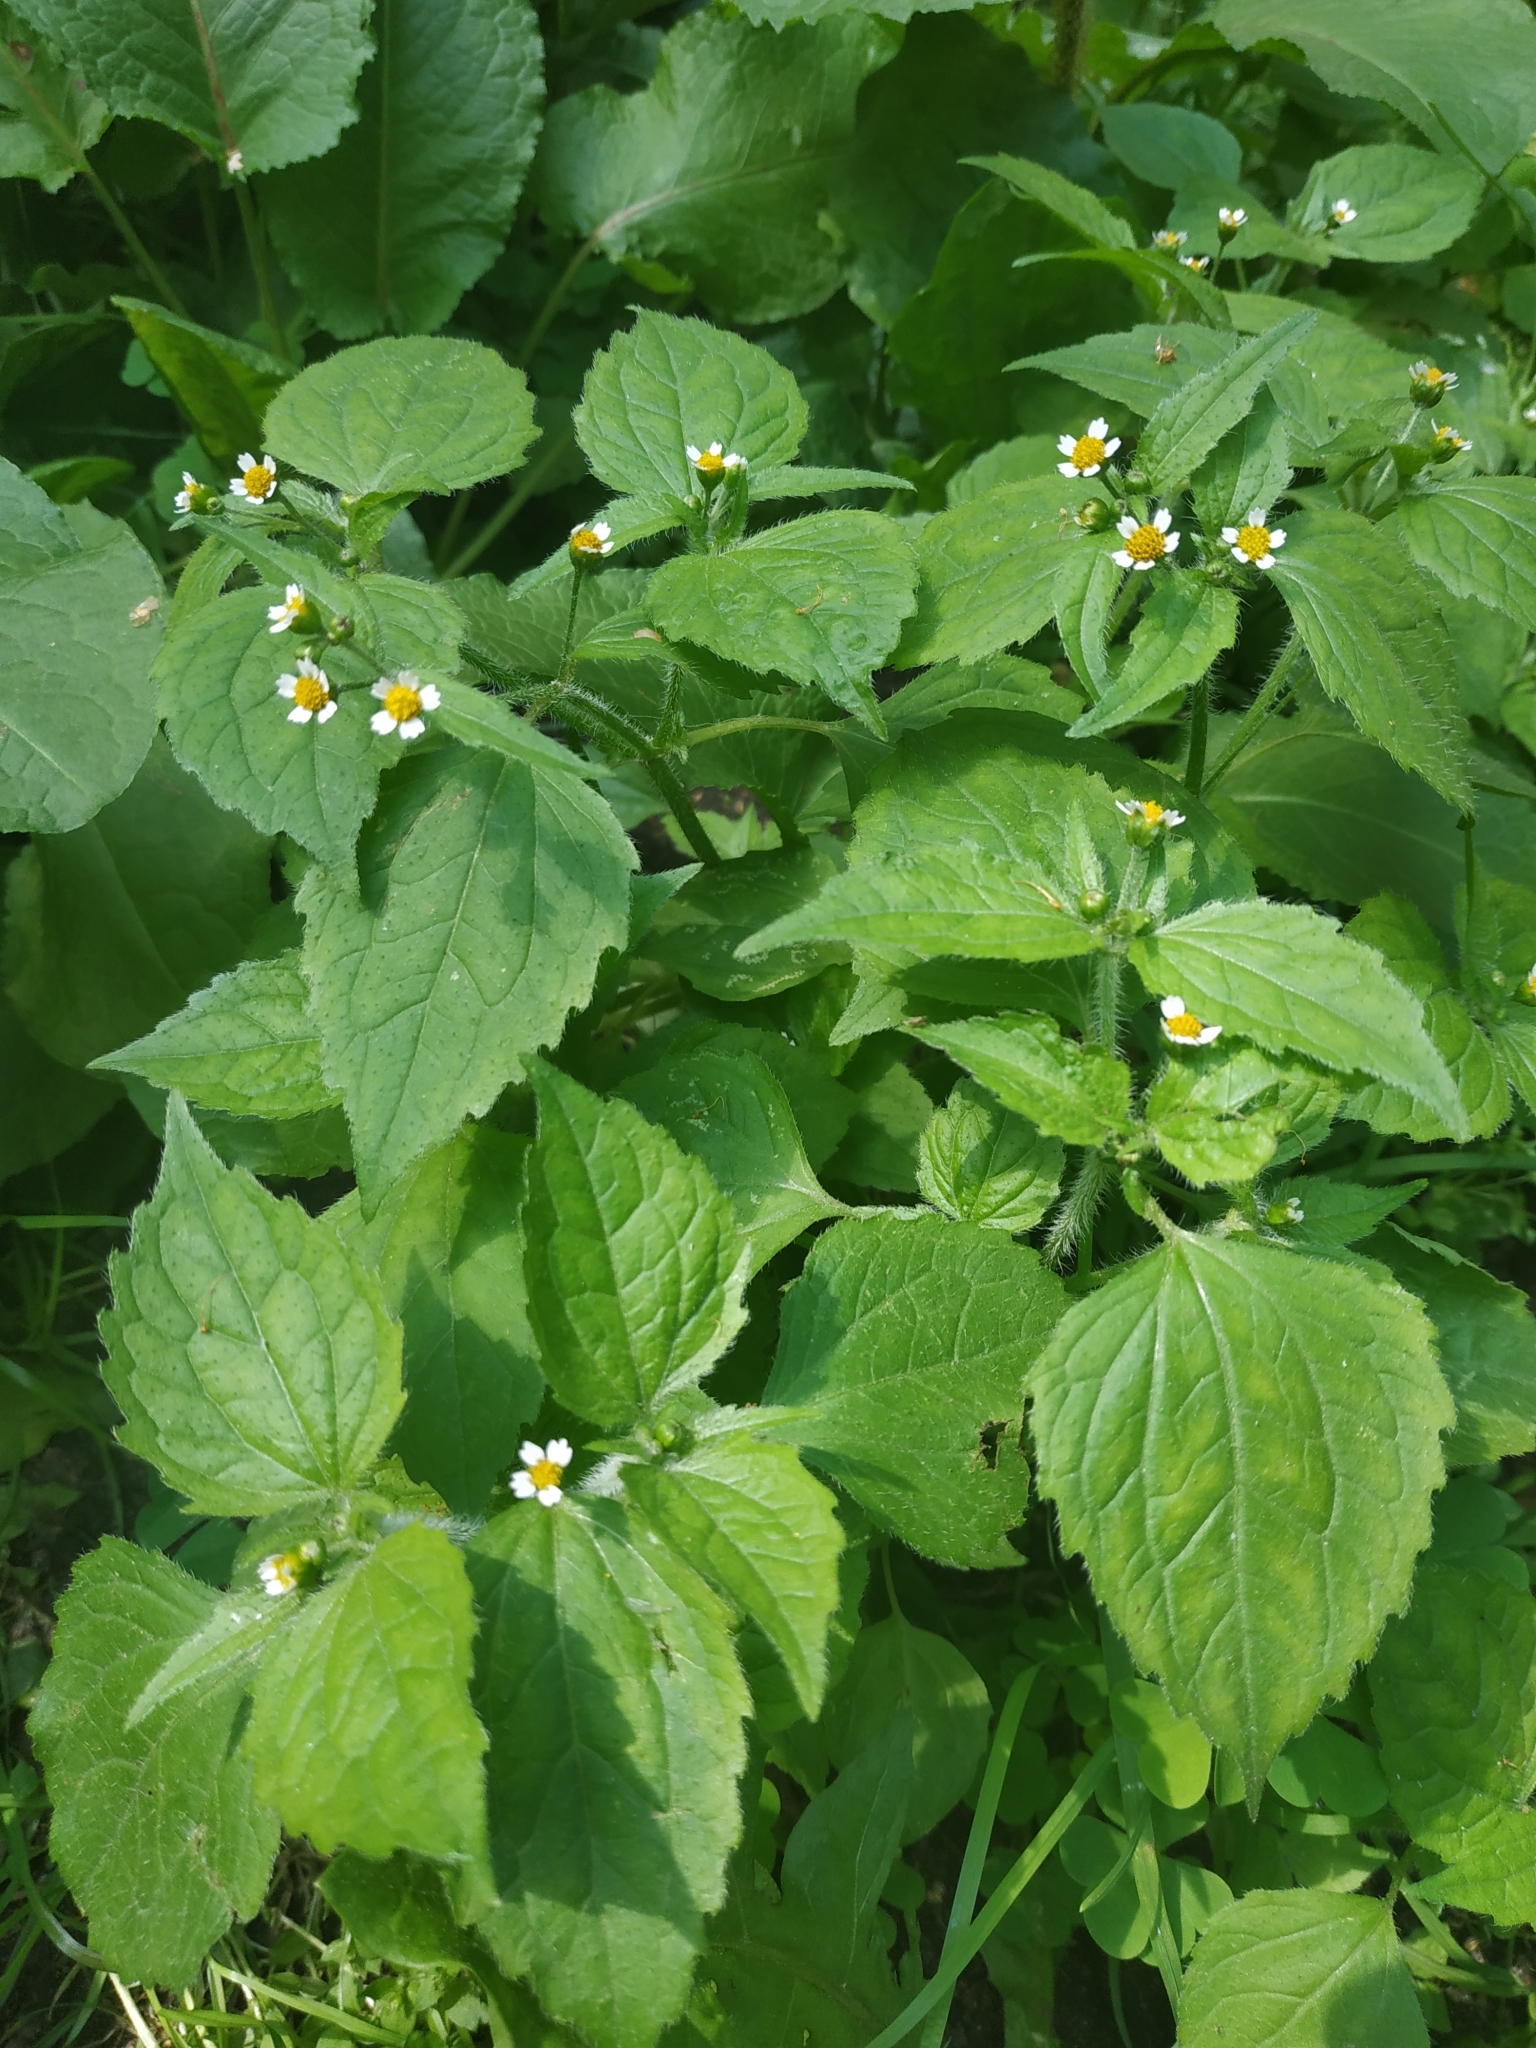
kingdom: Plantae
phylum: Tracheophyta
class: Magnoliopsida
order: Asterales
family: Asteraceae
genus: Galinsoga
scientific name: Galinsoga quadriradiata
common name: Shaggy soldier
